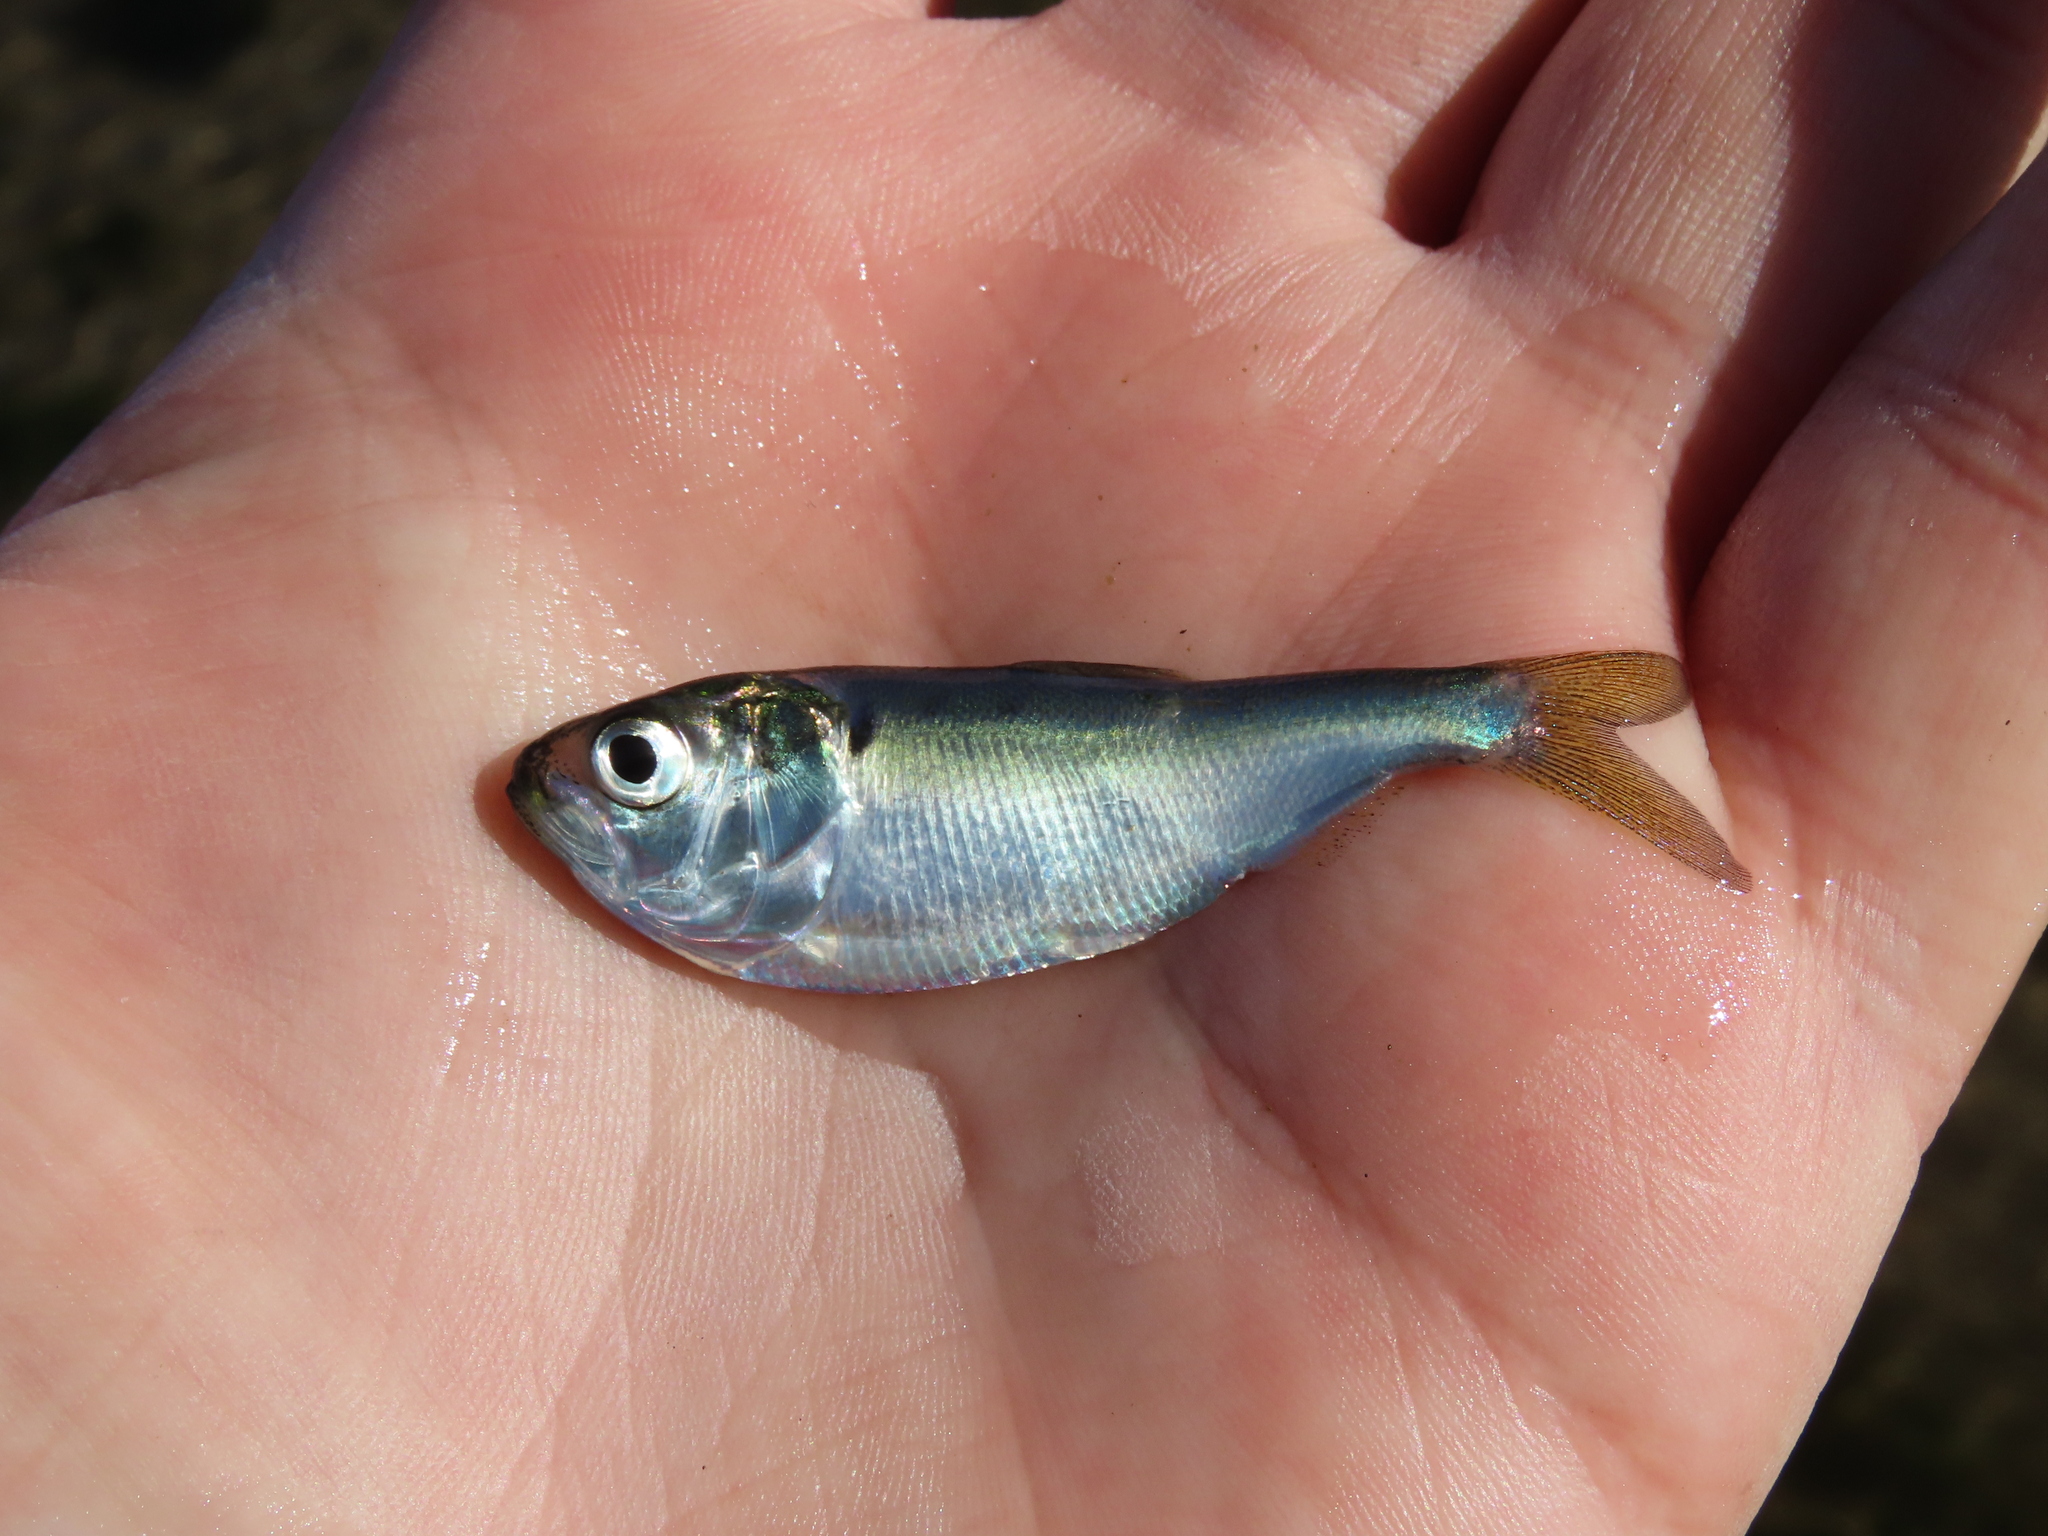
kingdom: Animalia
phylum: Chordata
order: Clupeiformes
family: Clupeidae
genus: Brevoortia
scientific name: Brevoortia tyrannus
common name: Atlantic menhaden
